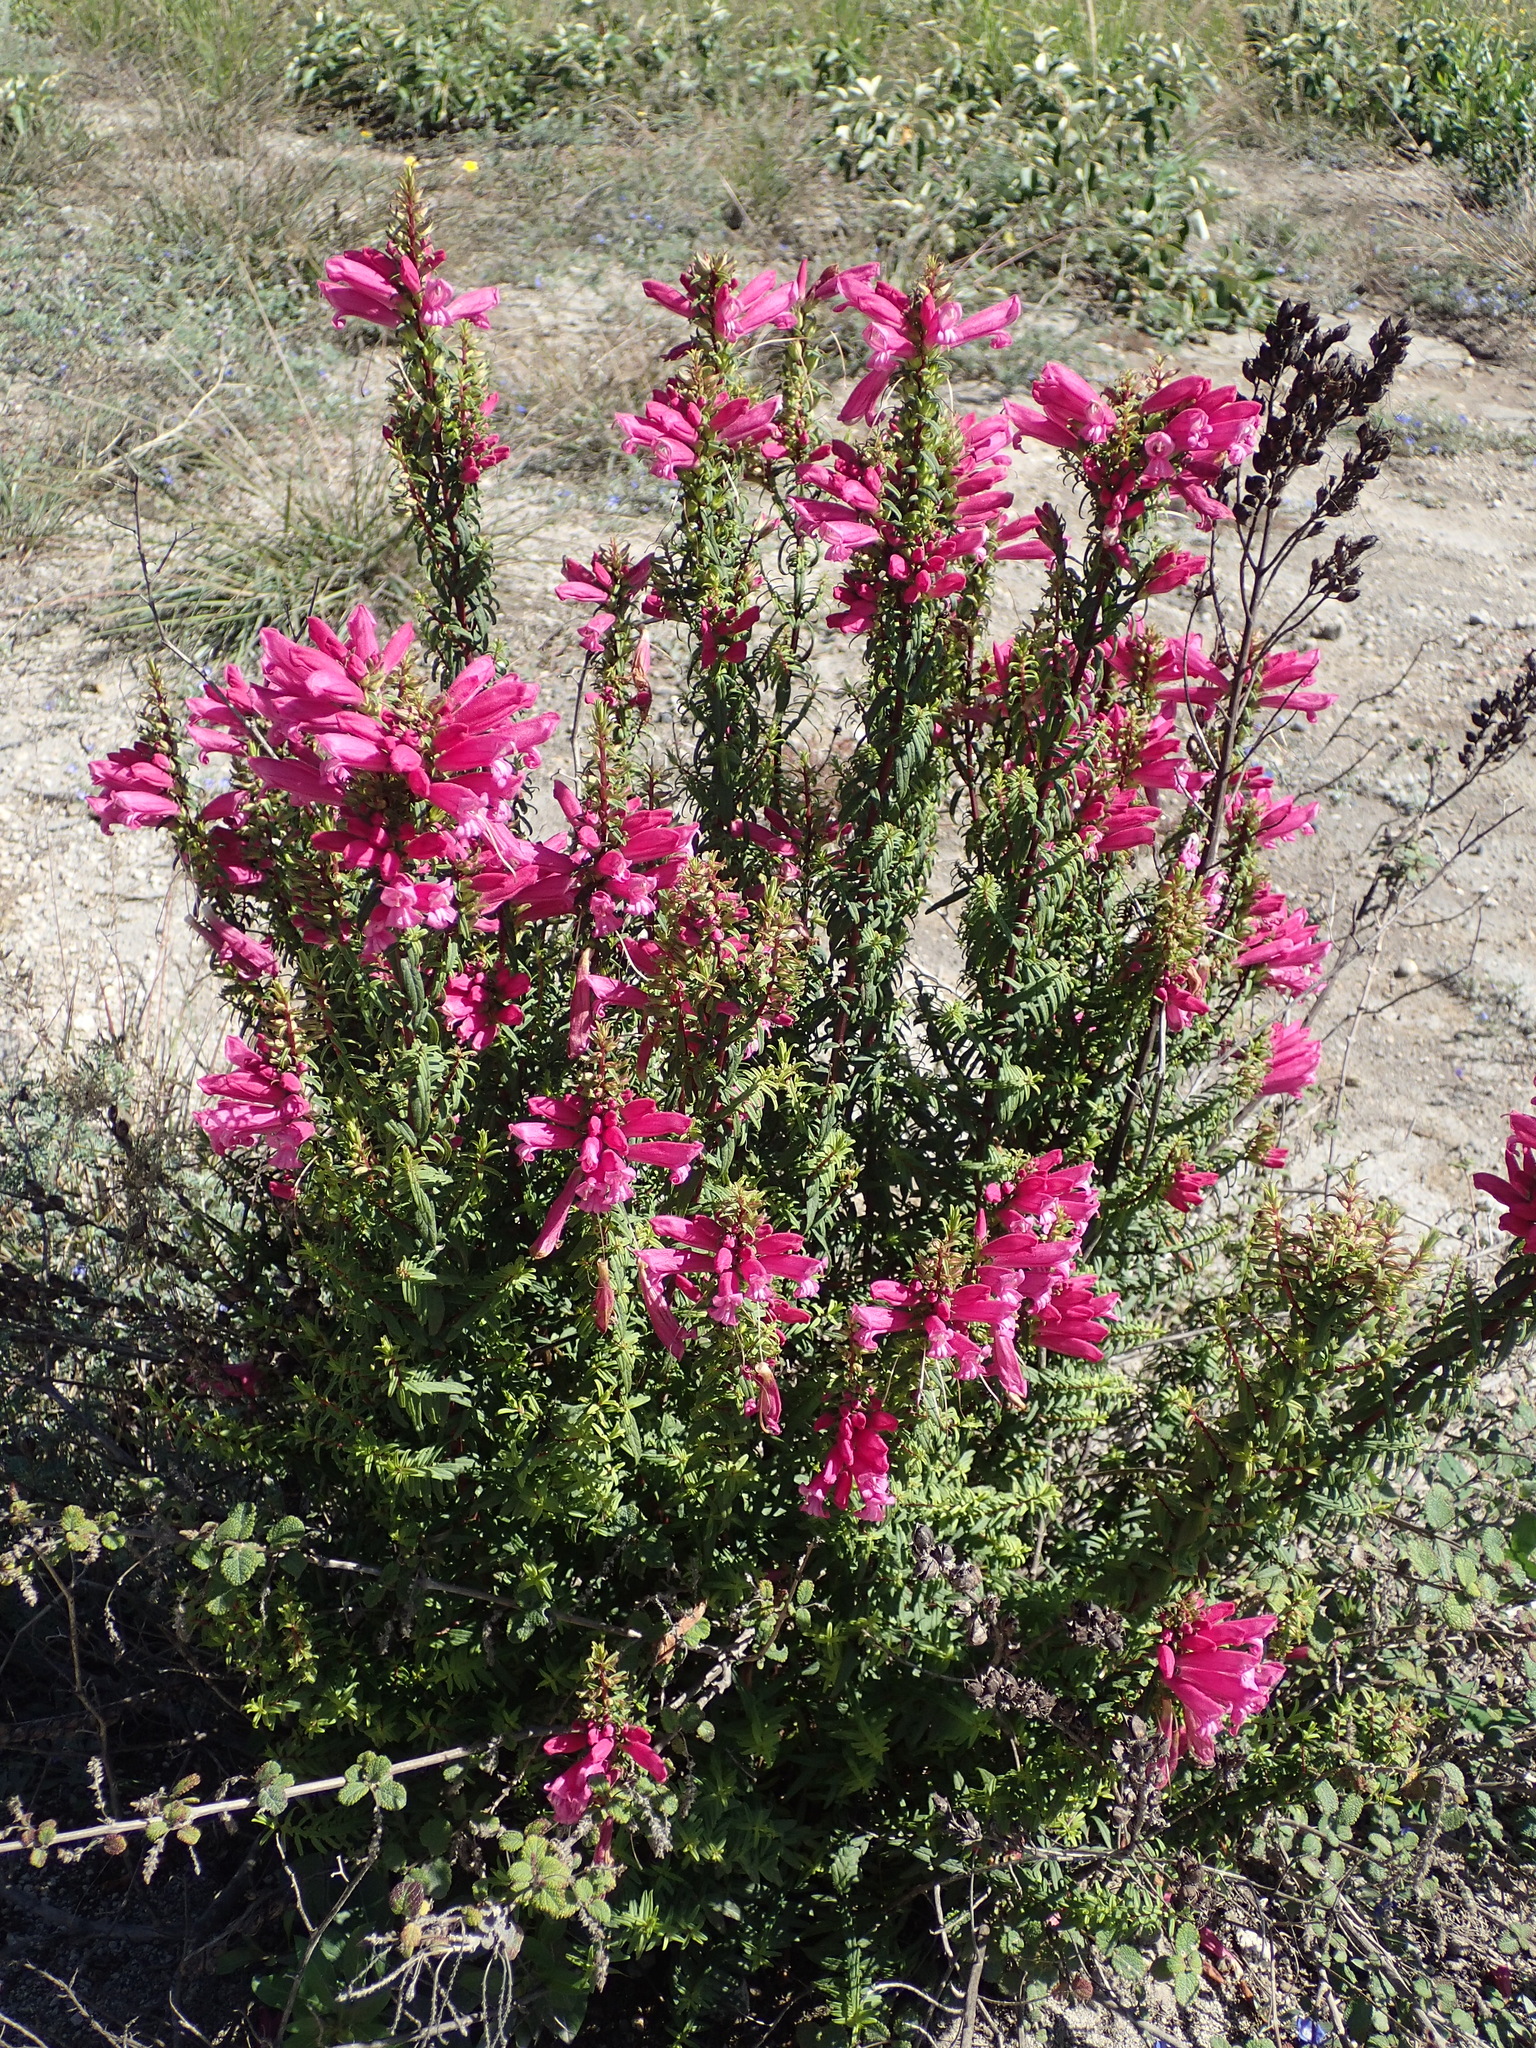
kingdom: Plantae
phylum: Tracheophyta
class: Magnoliopsida
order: Lamiales
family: Orobanchaceae
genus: Lamourouxia
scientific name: Lamourouxia virgata
